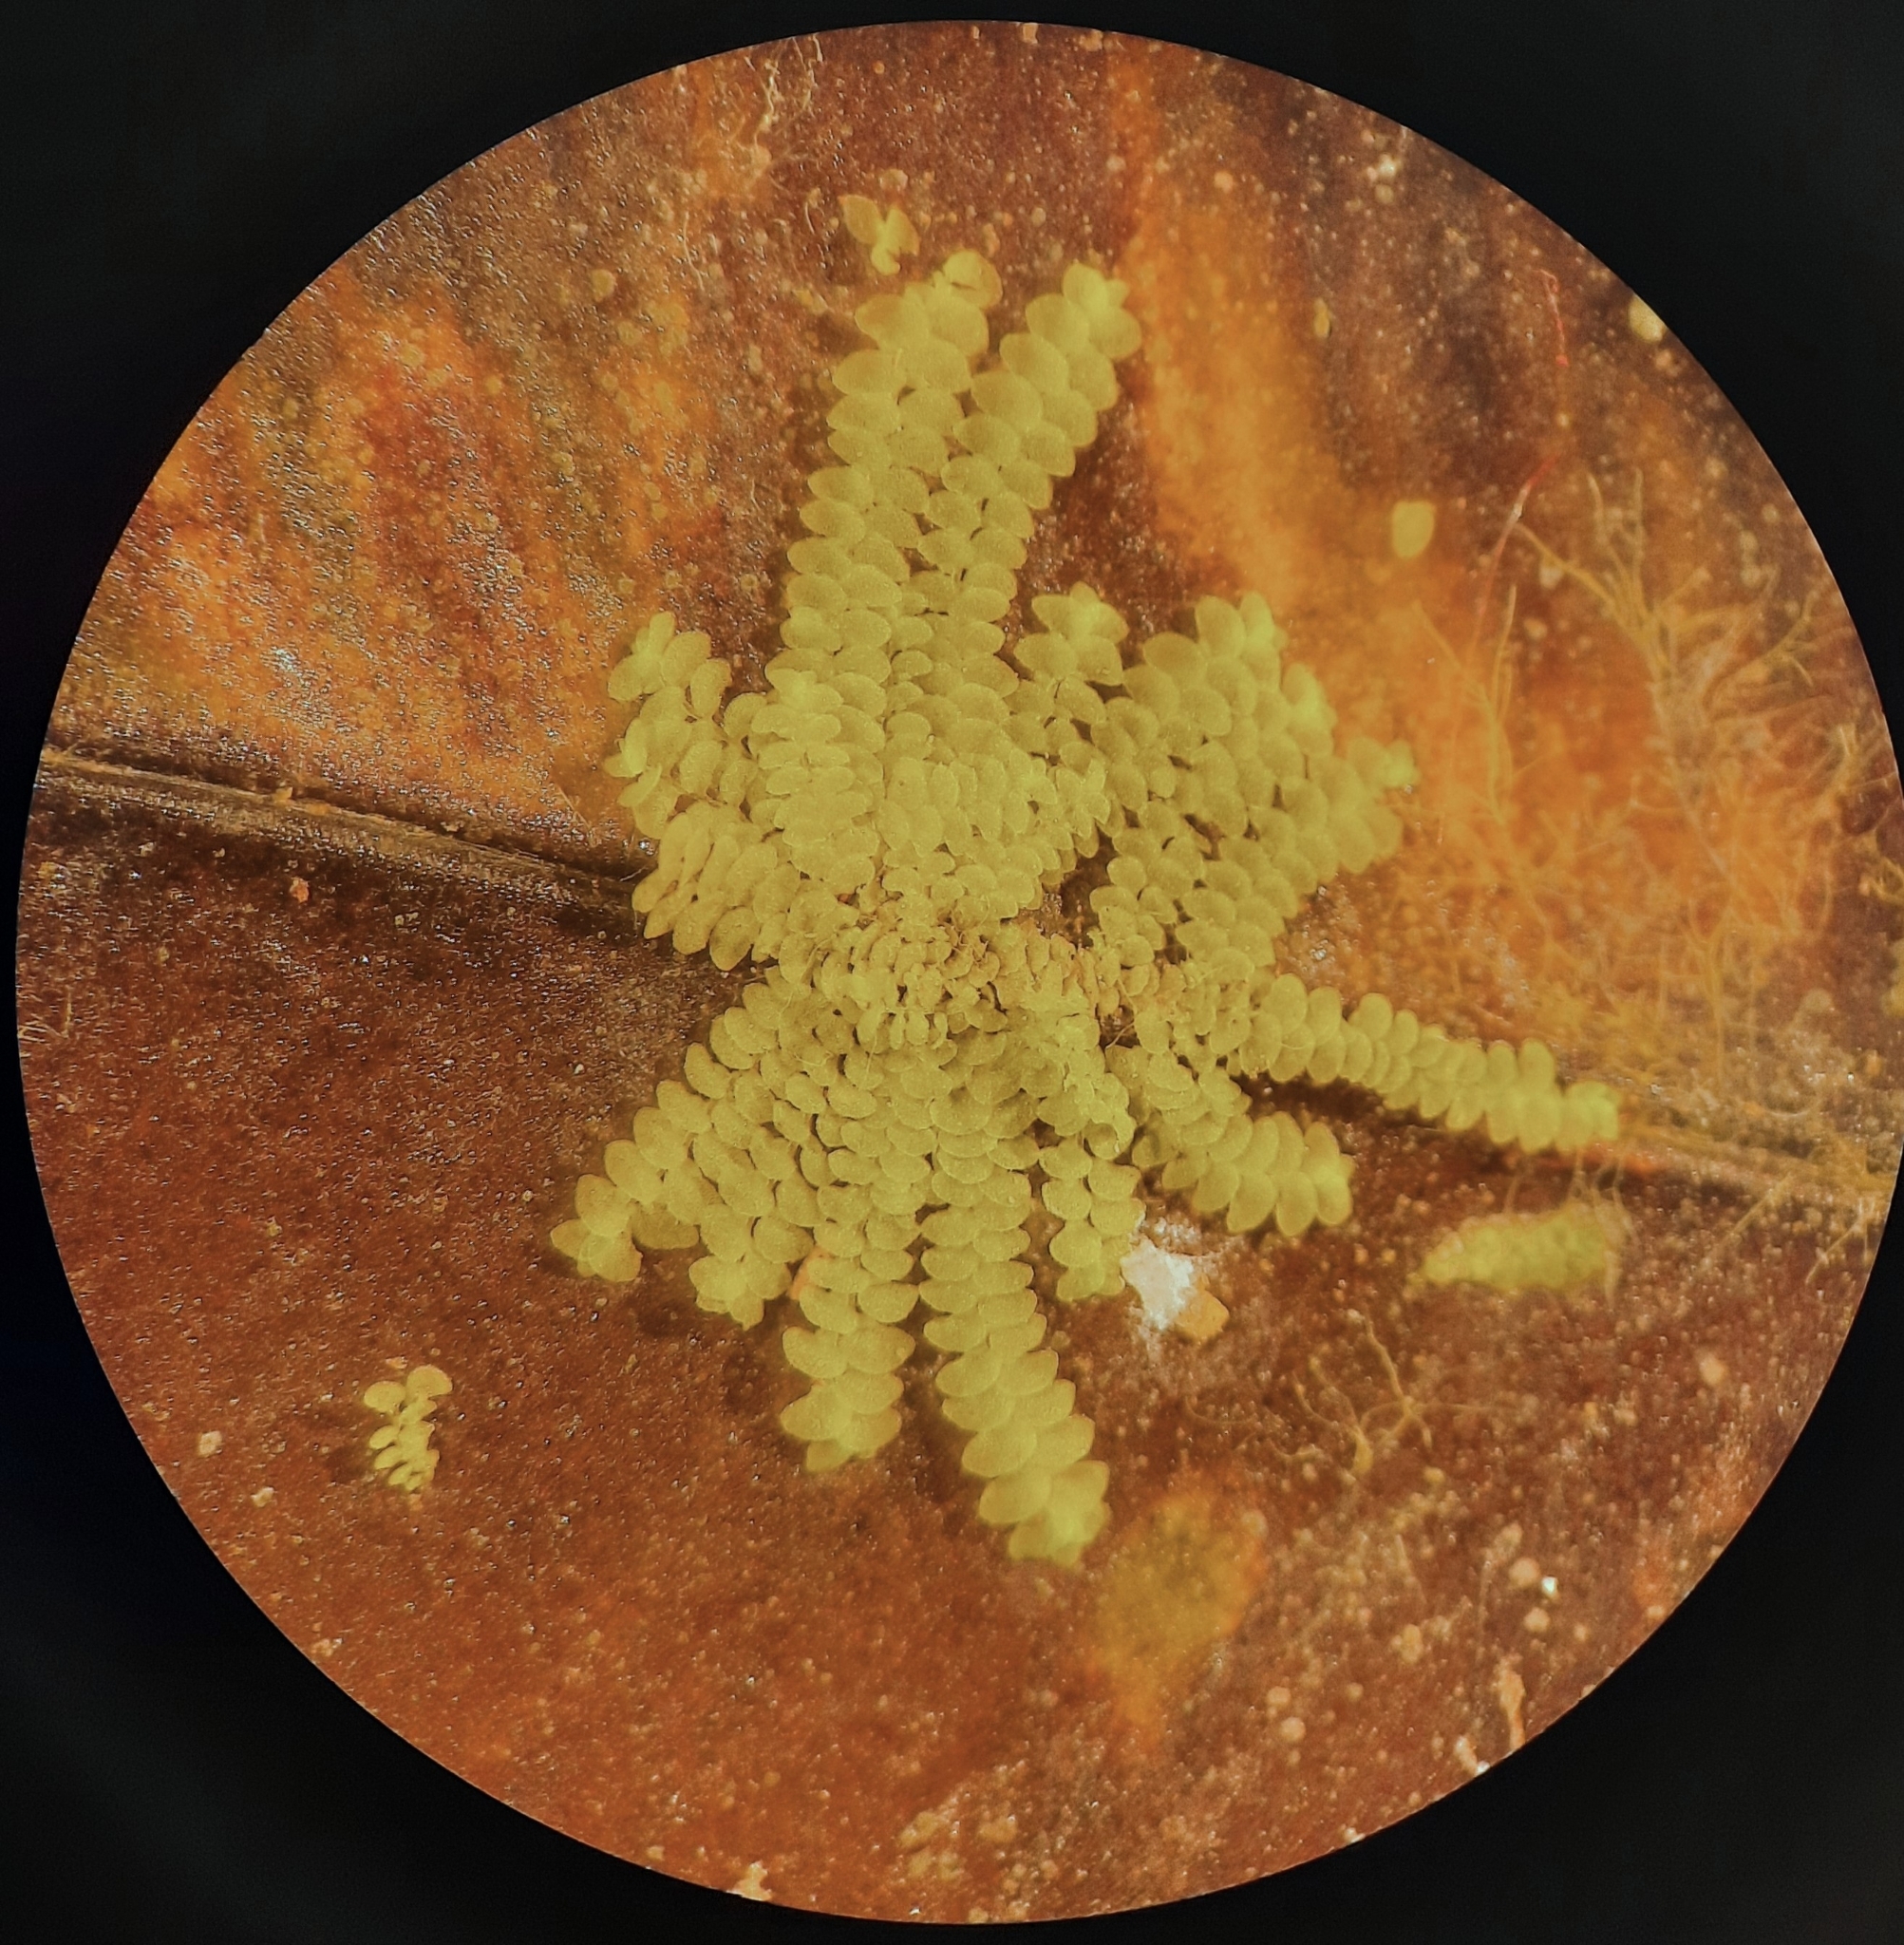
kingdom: Plantae
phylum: Marchantiophyta
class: Jungermanniopsida
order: Porellales
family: Lejeuneaceae
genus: Echinolejeunea
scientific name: Echinolejeunea papillata
